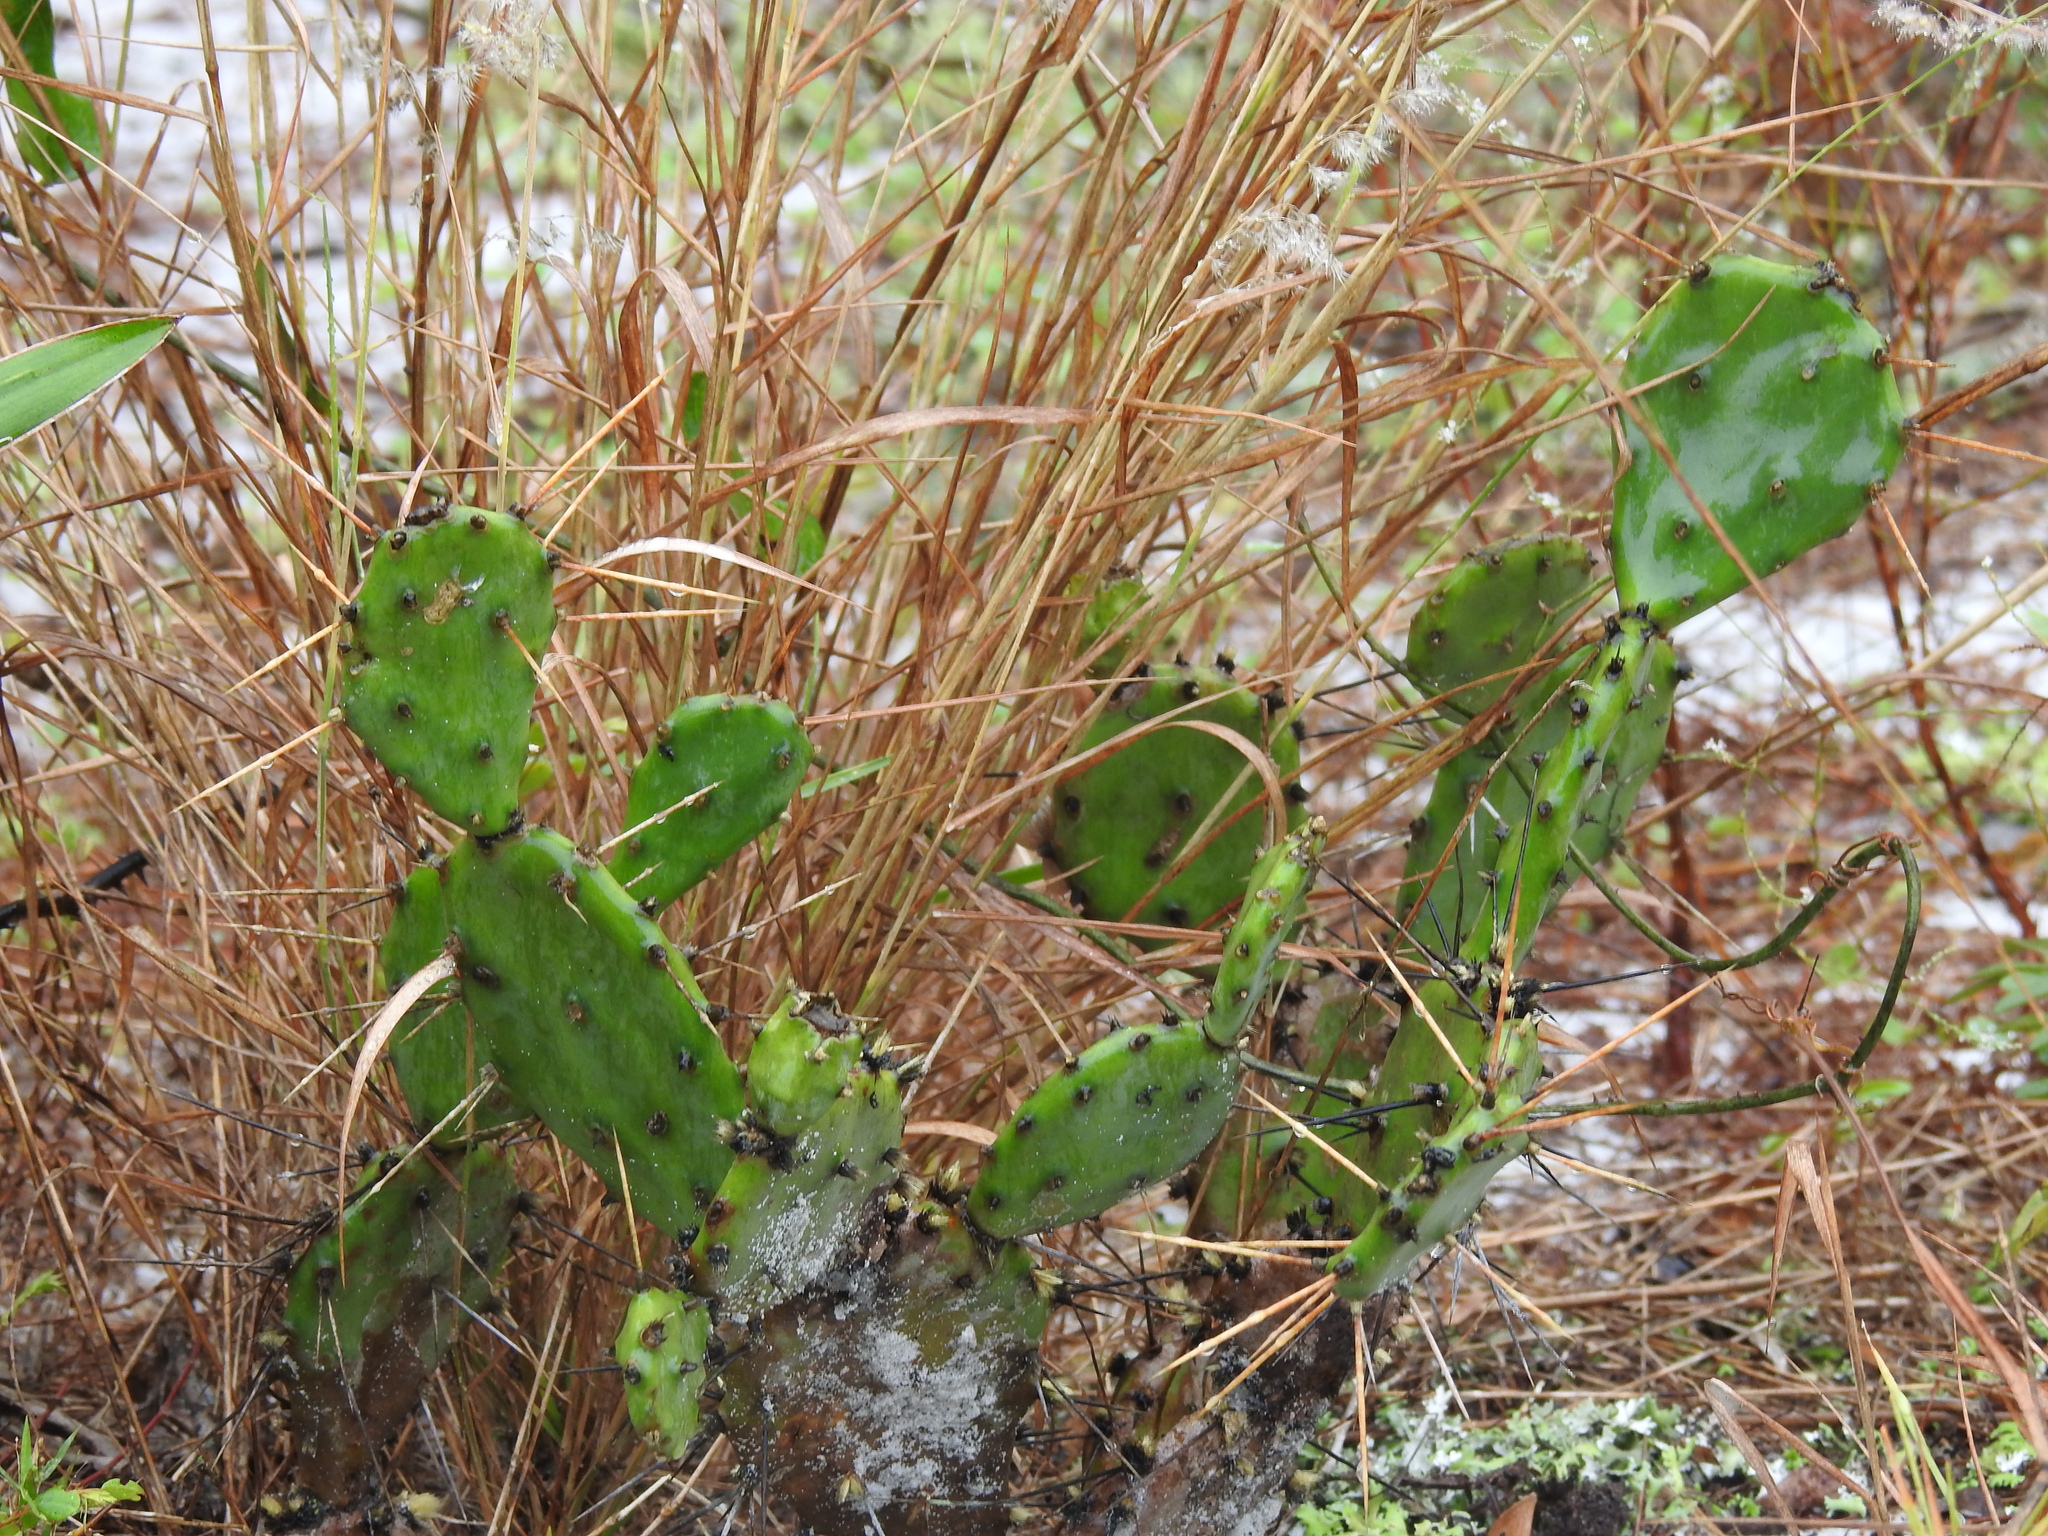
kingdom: Plantae
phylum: Tracheophyta
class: Magnoliopsida
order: Caryophyllales
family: Cactaceae
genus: Opuntia
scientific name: Opuntia austrina
